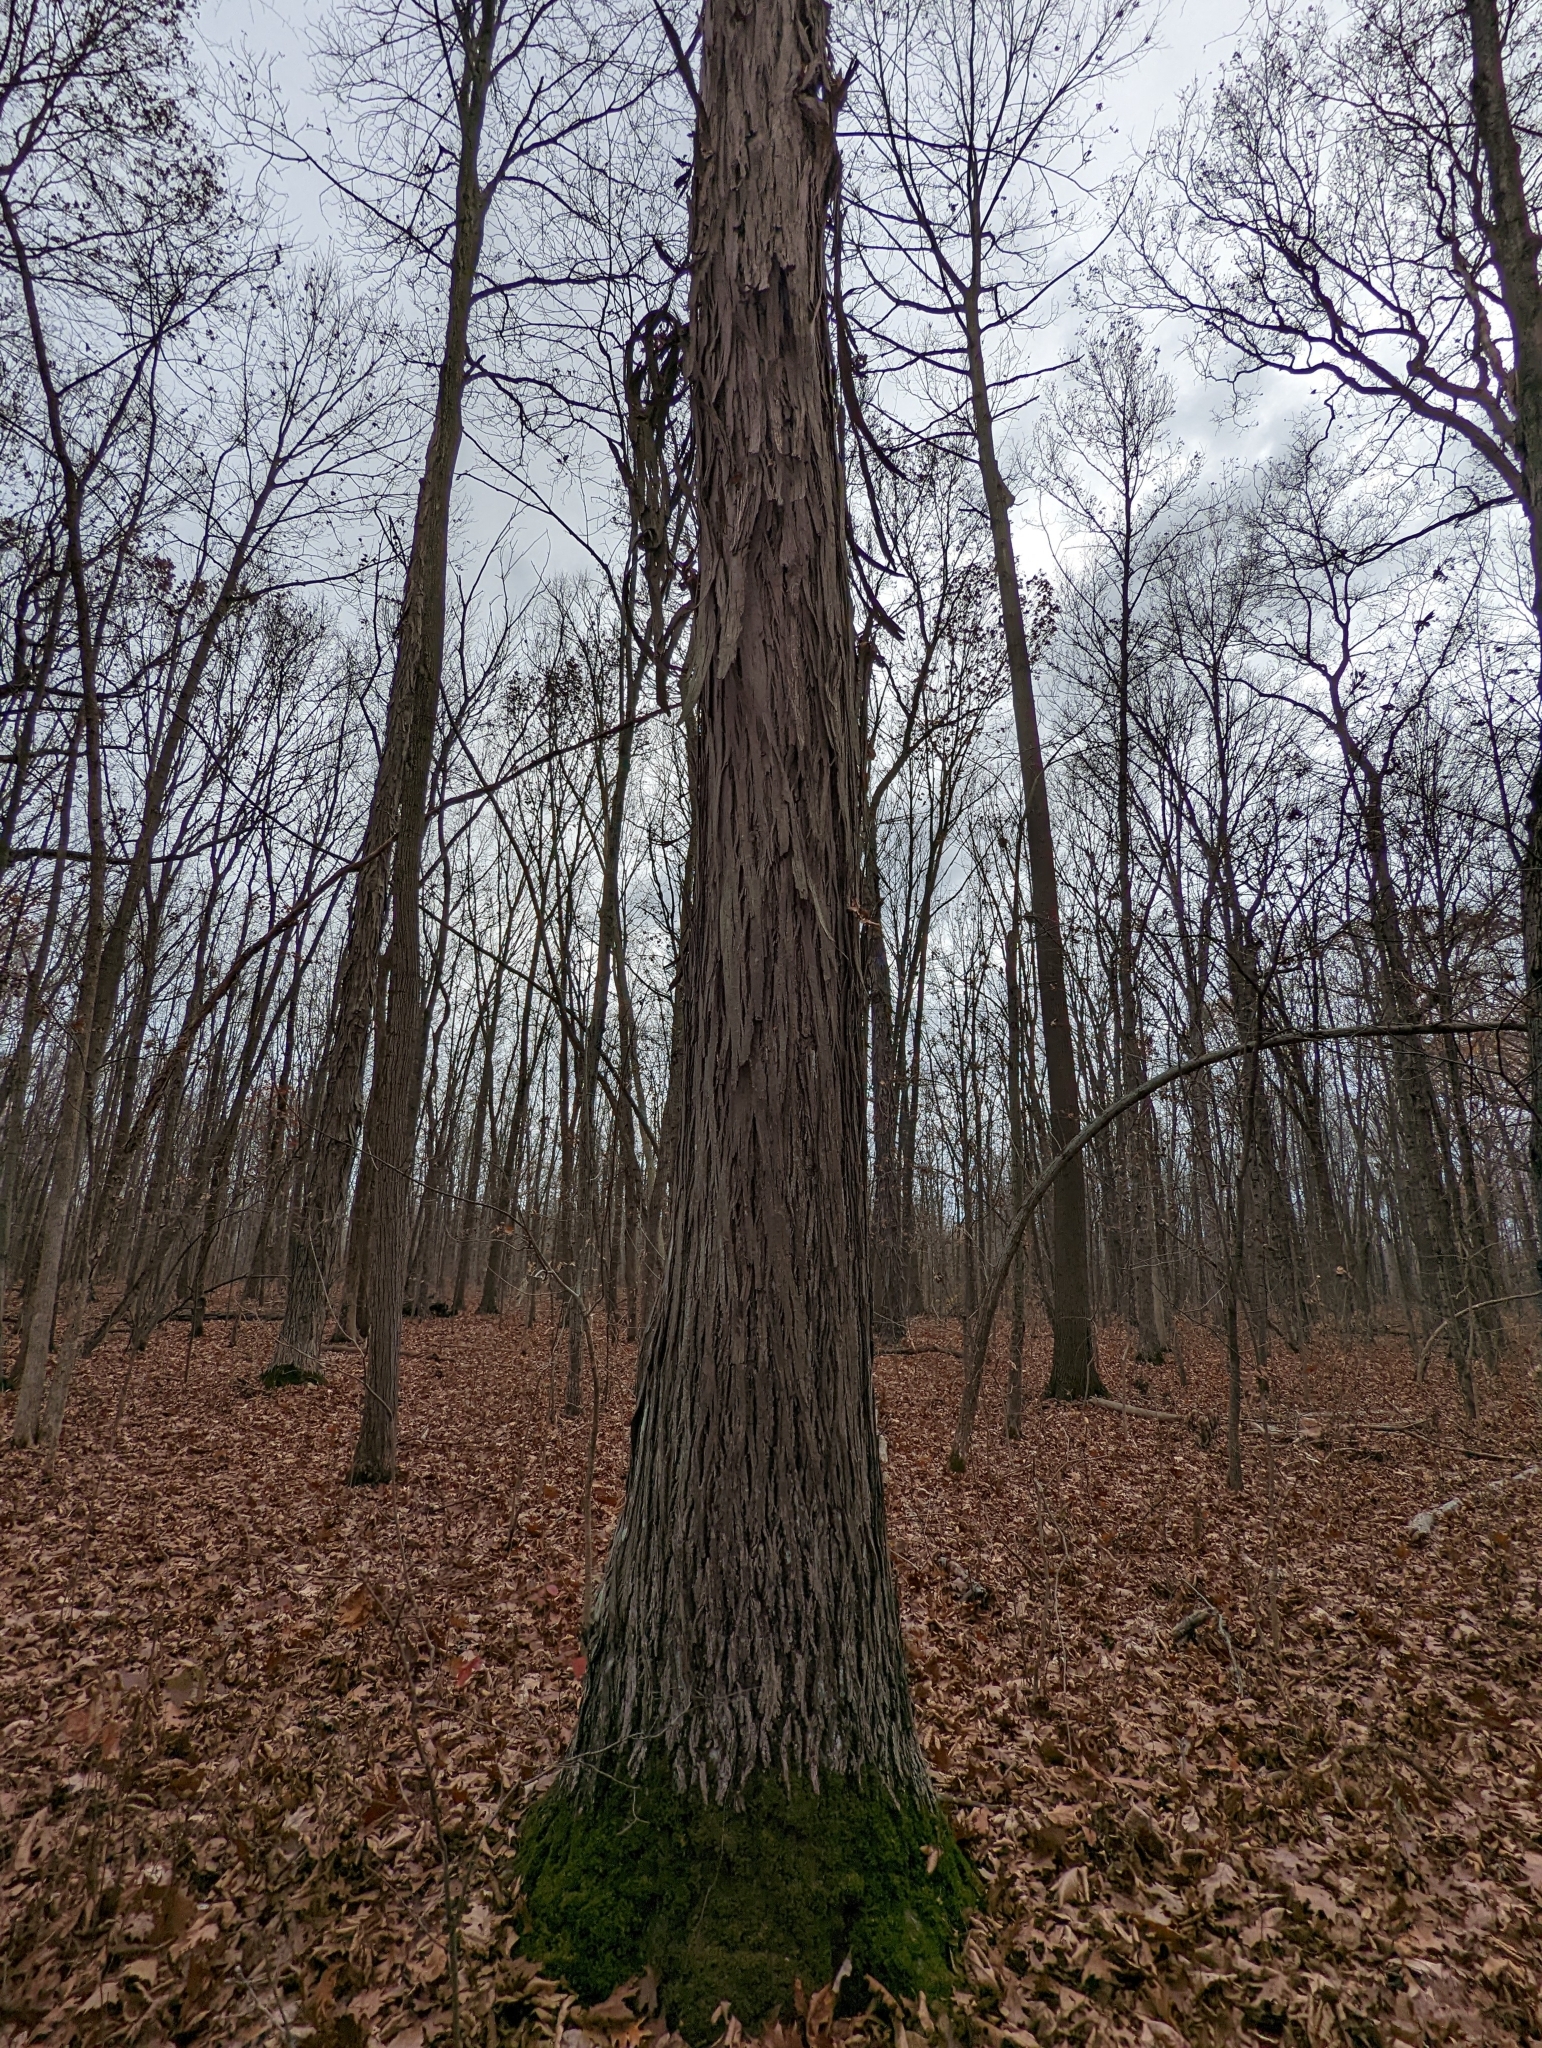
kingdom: Plantae
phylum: Tracheophyta
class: Magnoliopsida
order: Fagales
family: Juglandaceae
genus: Carya
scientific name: Carya ovata
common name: Shagbark hickory
